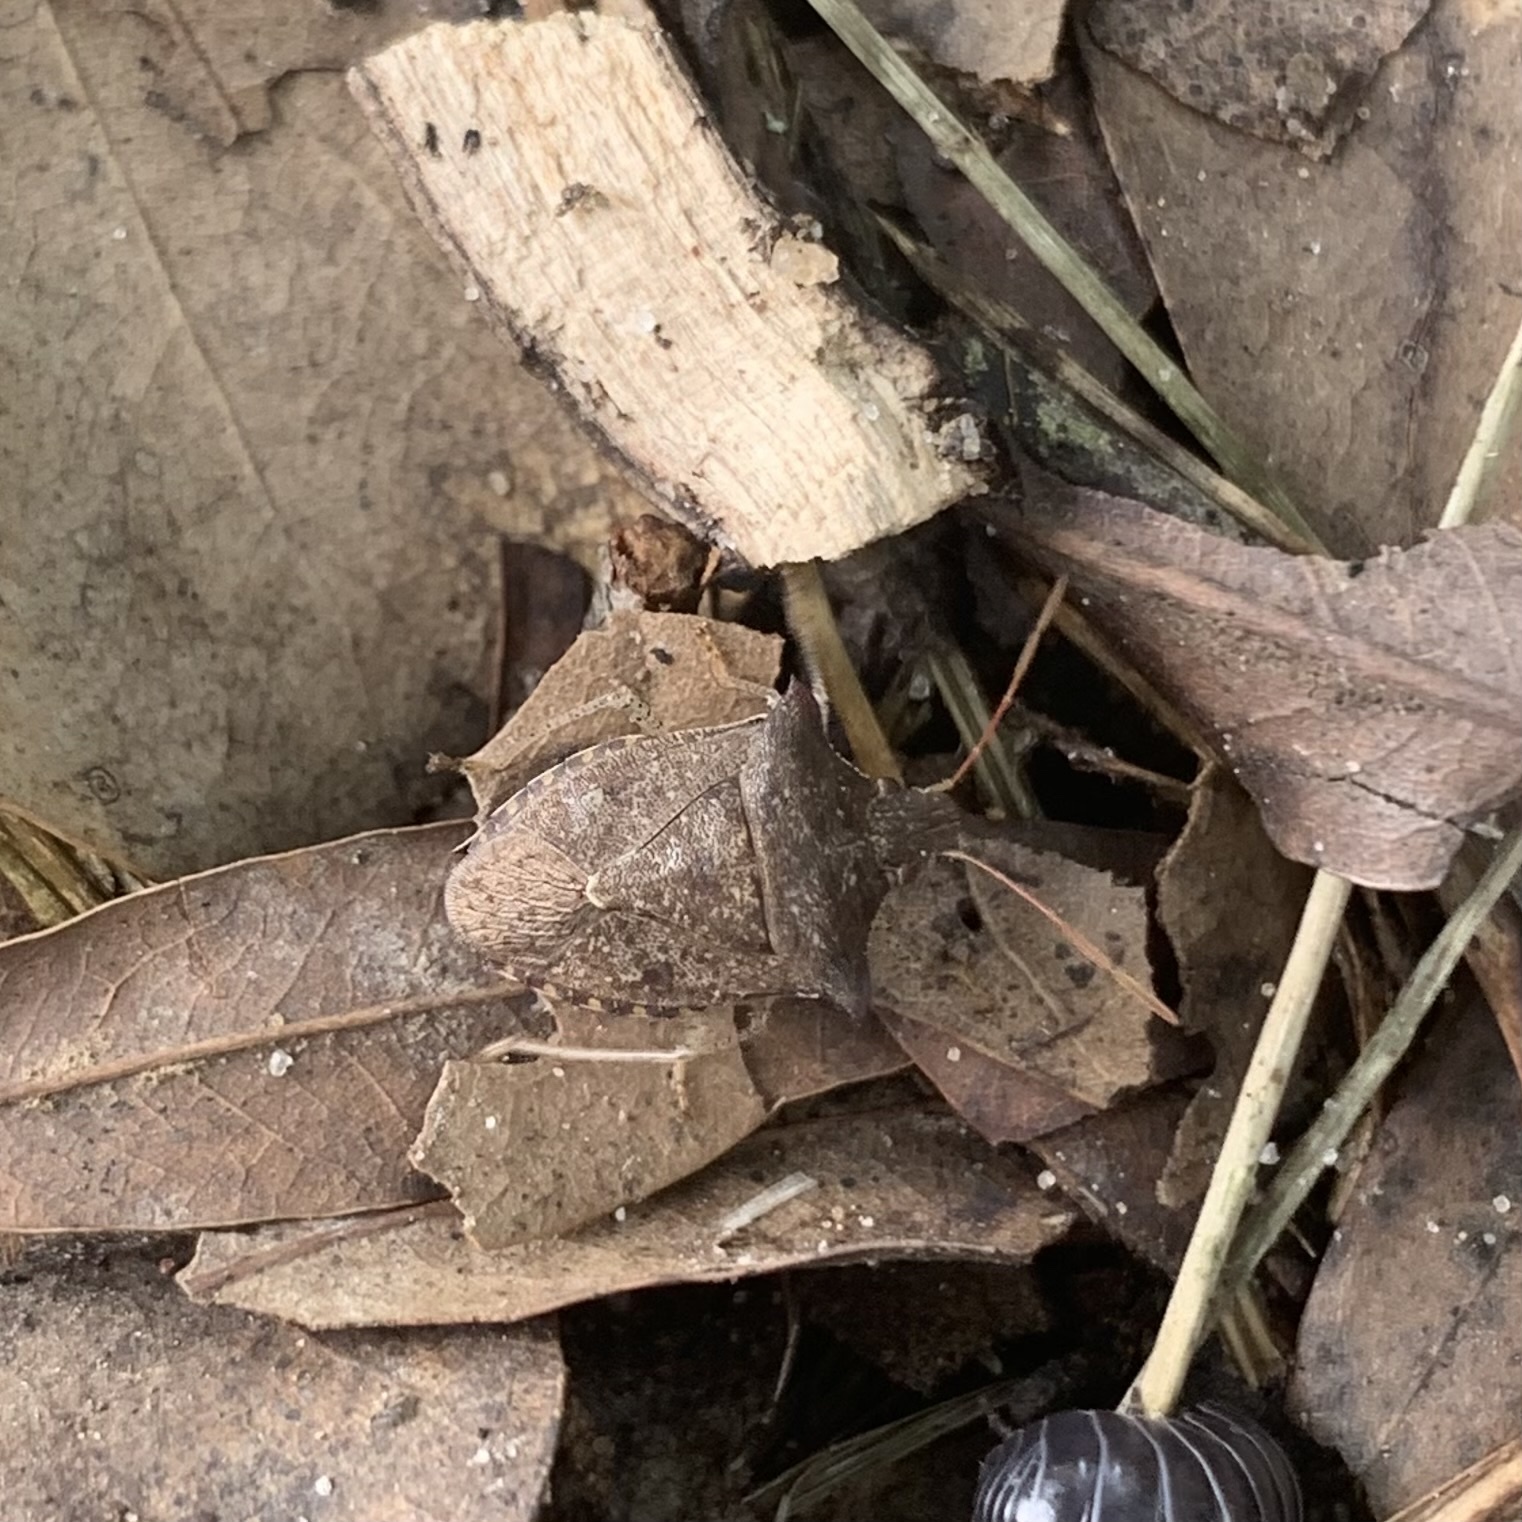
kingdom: Animalia
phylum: Arthropoda
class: Insecta
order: Hemiptera
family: Pentatomidae
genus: Euschistus
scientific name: Euschistus tristigmus
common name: Dusky stink bug
